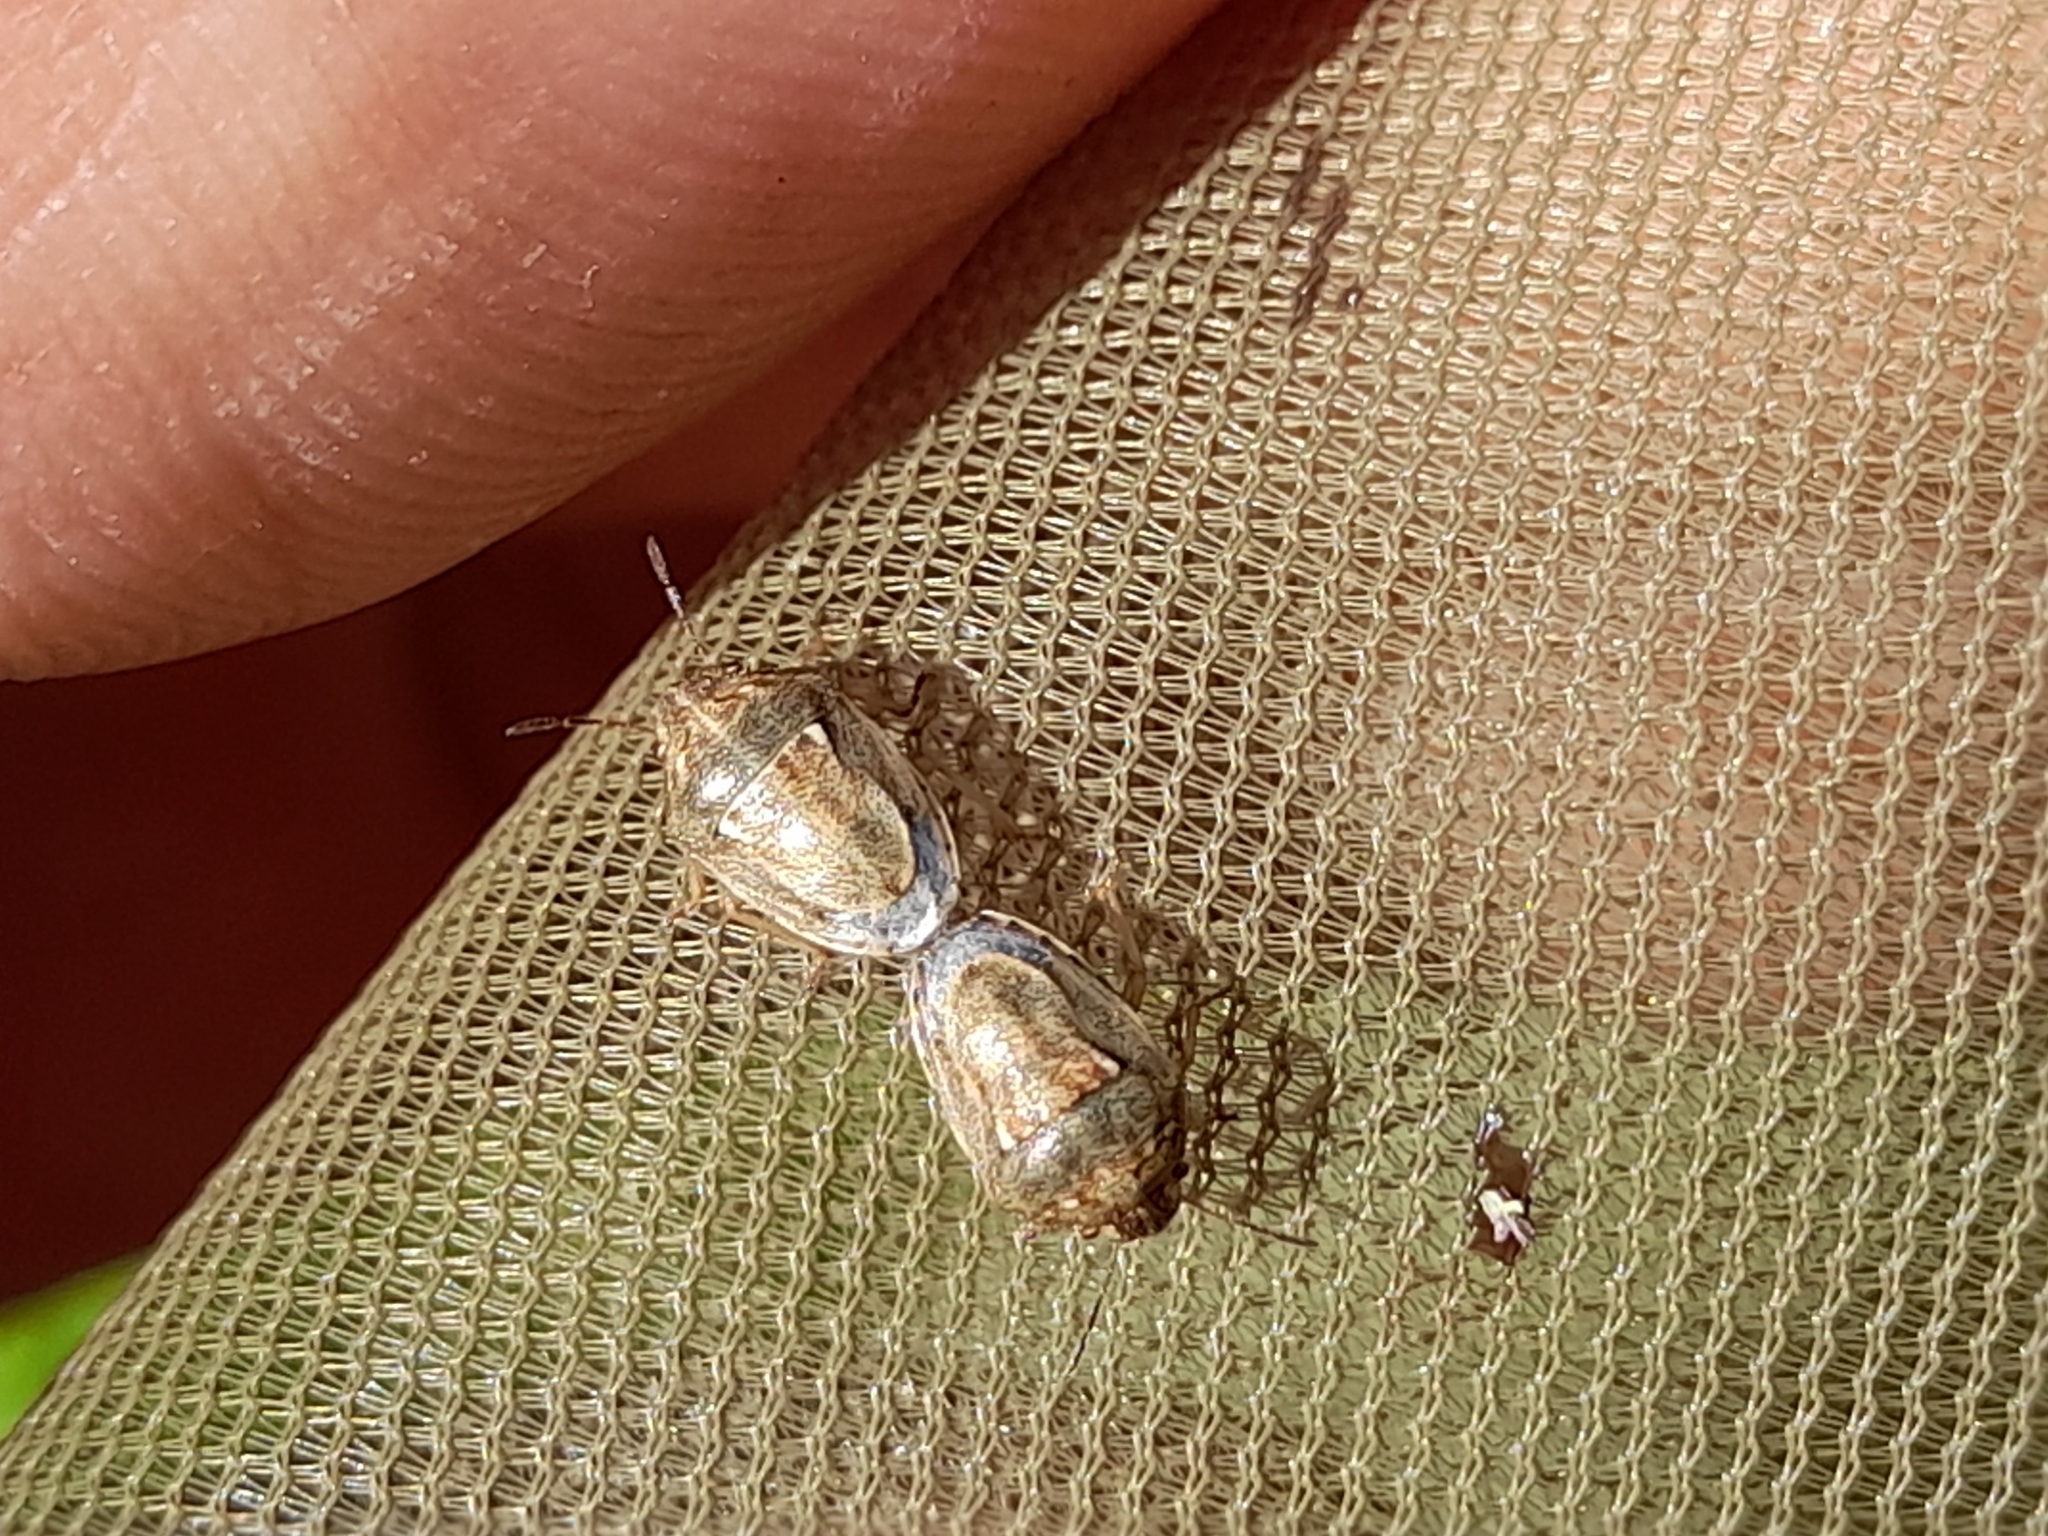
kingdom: Animalia
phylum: Arthropoda
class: Insecta
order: Hemiptera
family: Pentatomidae
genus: Neottiglossa
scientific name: Neottiglossa leporina
